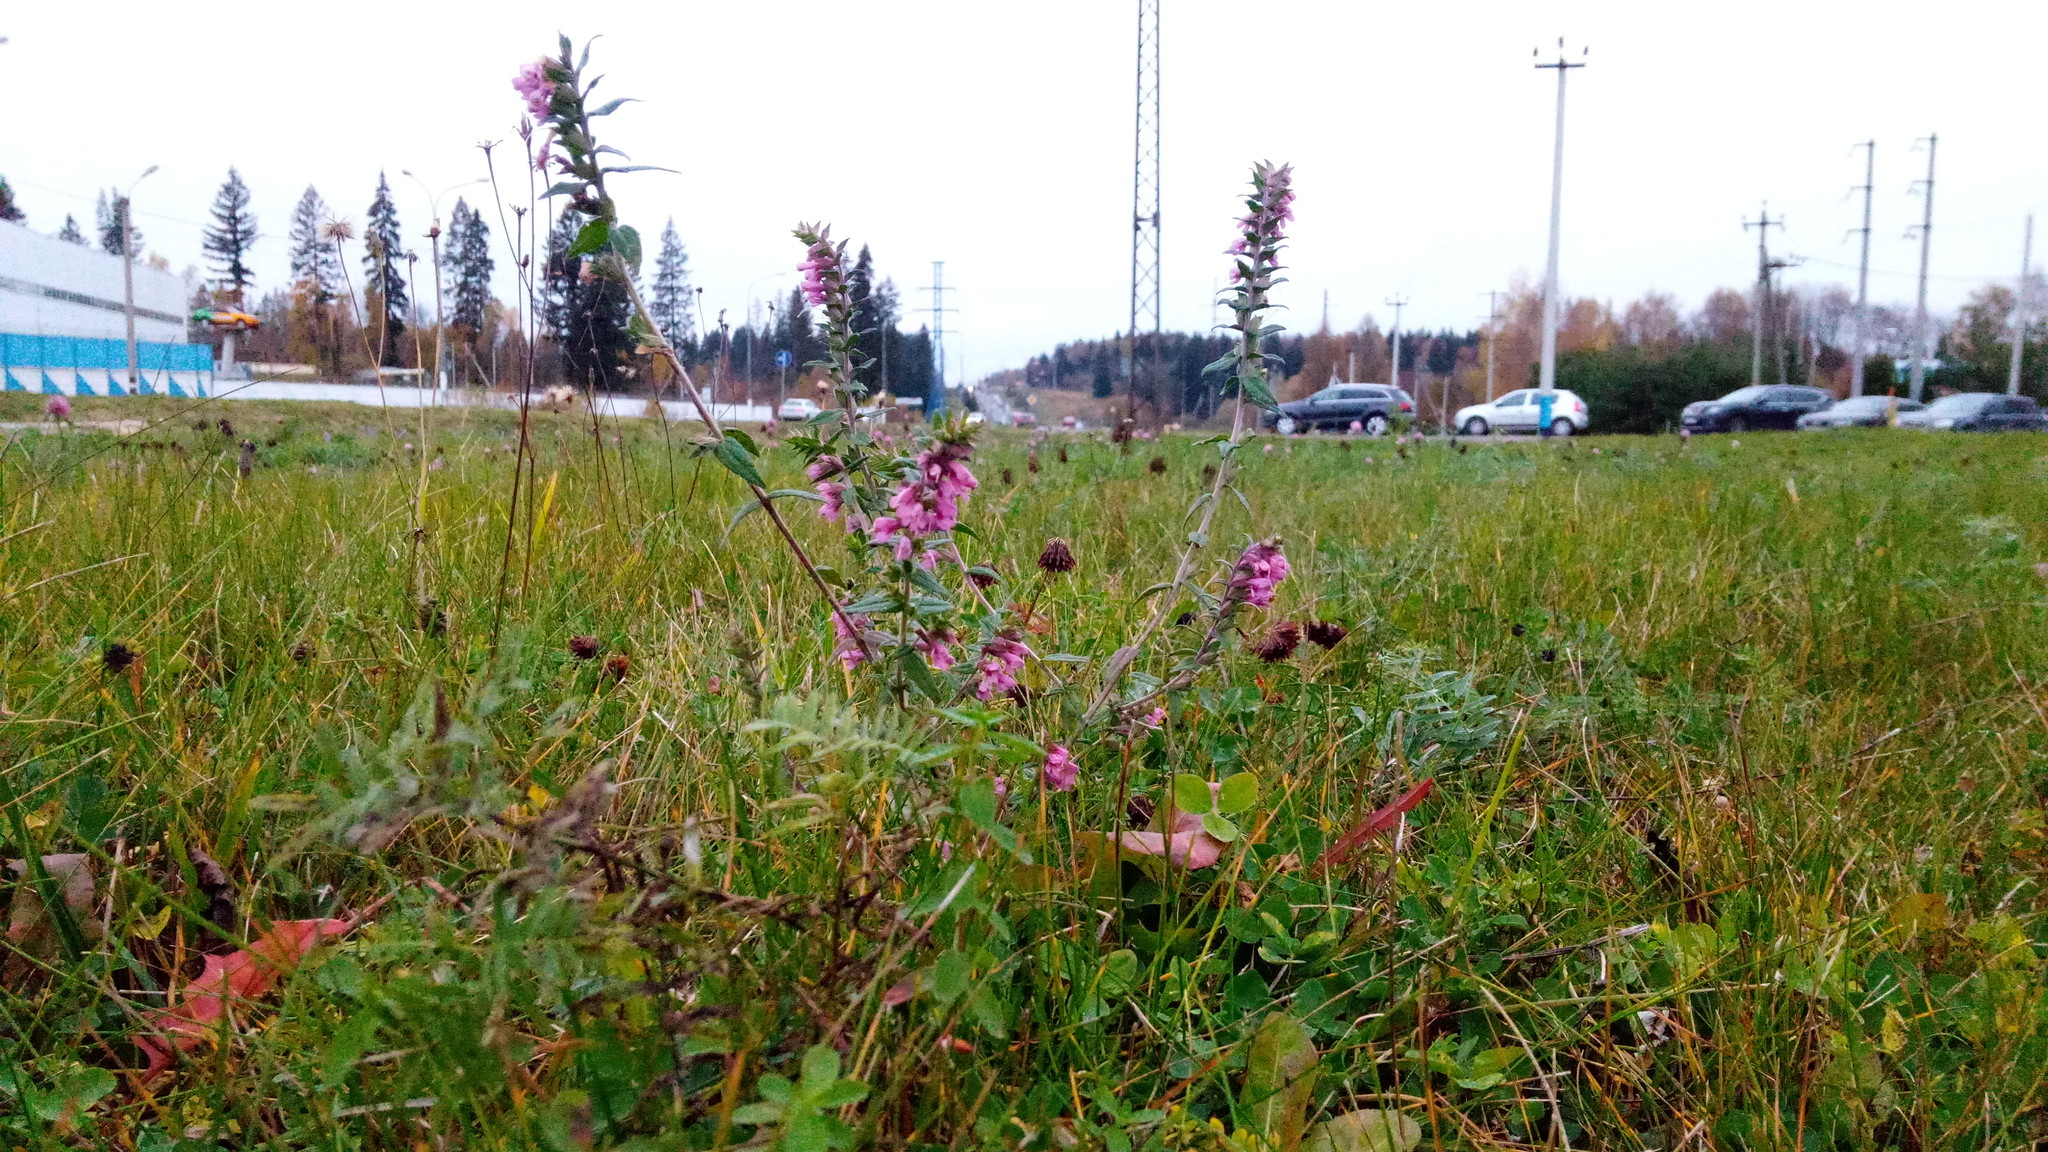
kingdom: Plantae
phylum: Tracheophyta
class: Magnoliopsida
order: Lamiales
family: Orobanchaceae
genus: Odontites
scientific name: Odontites vulgaris
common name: Broomrape
